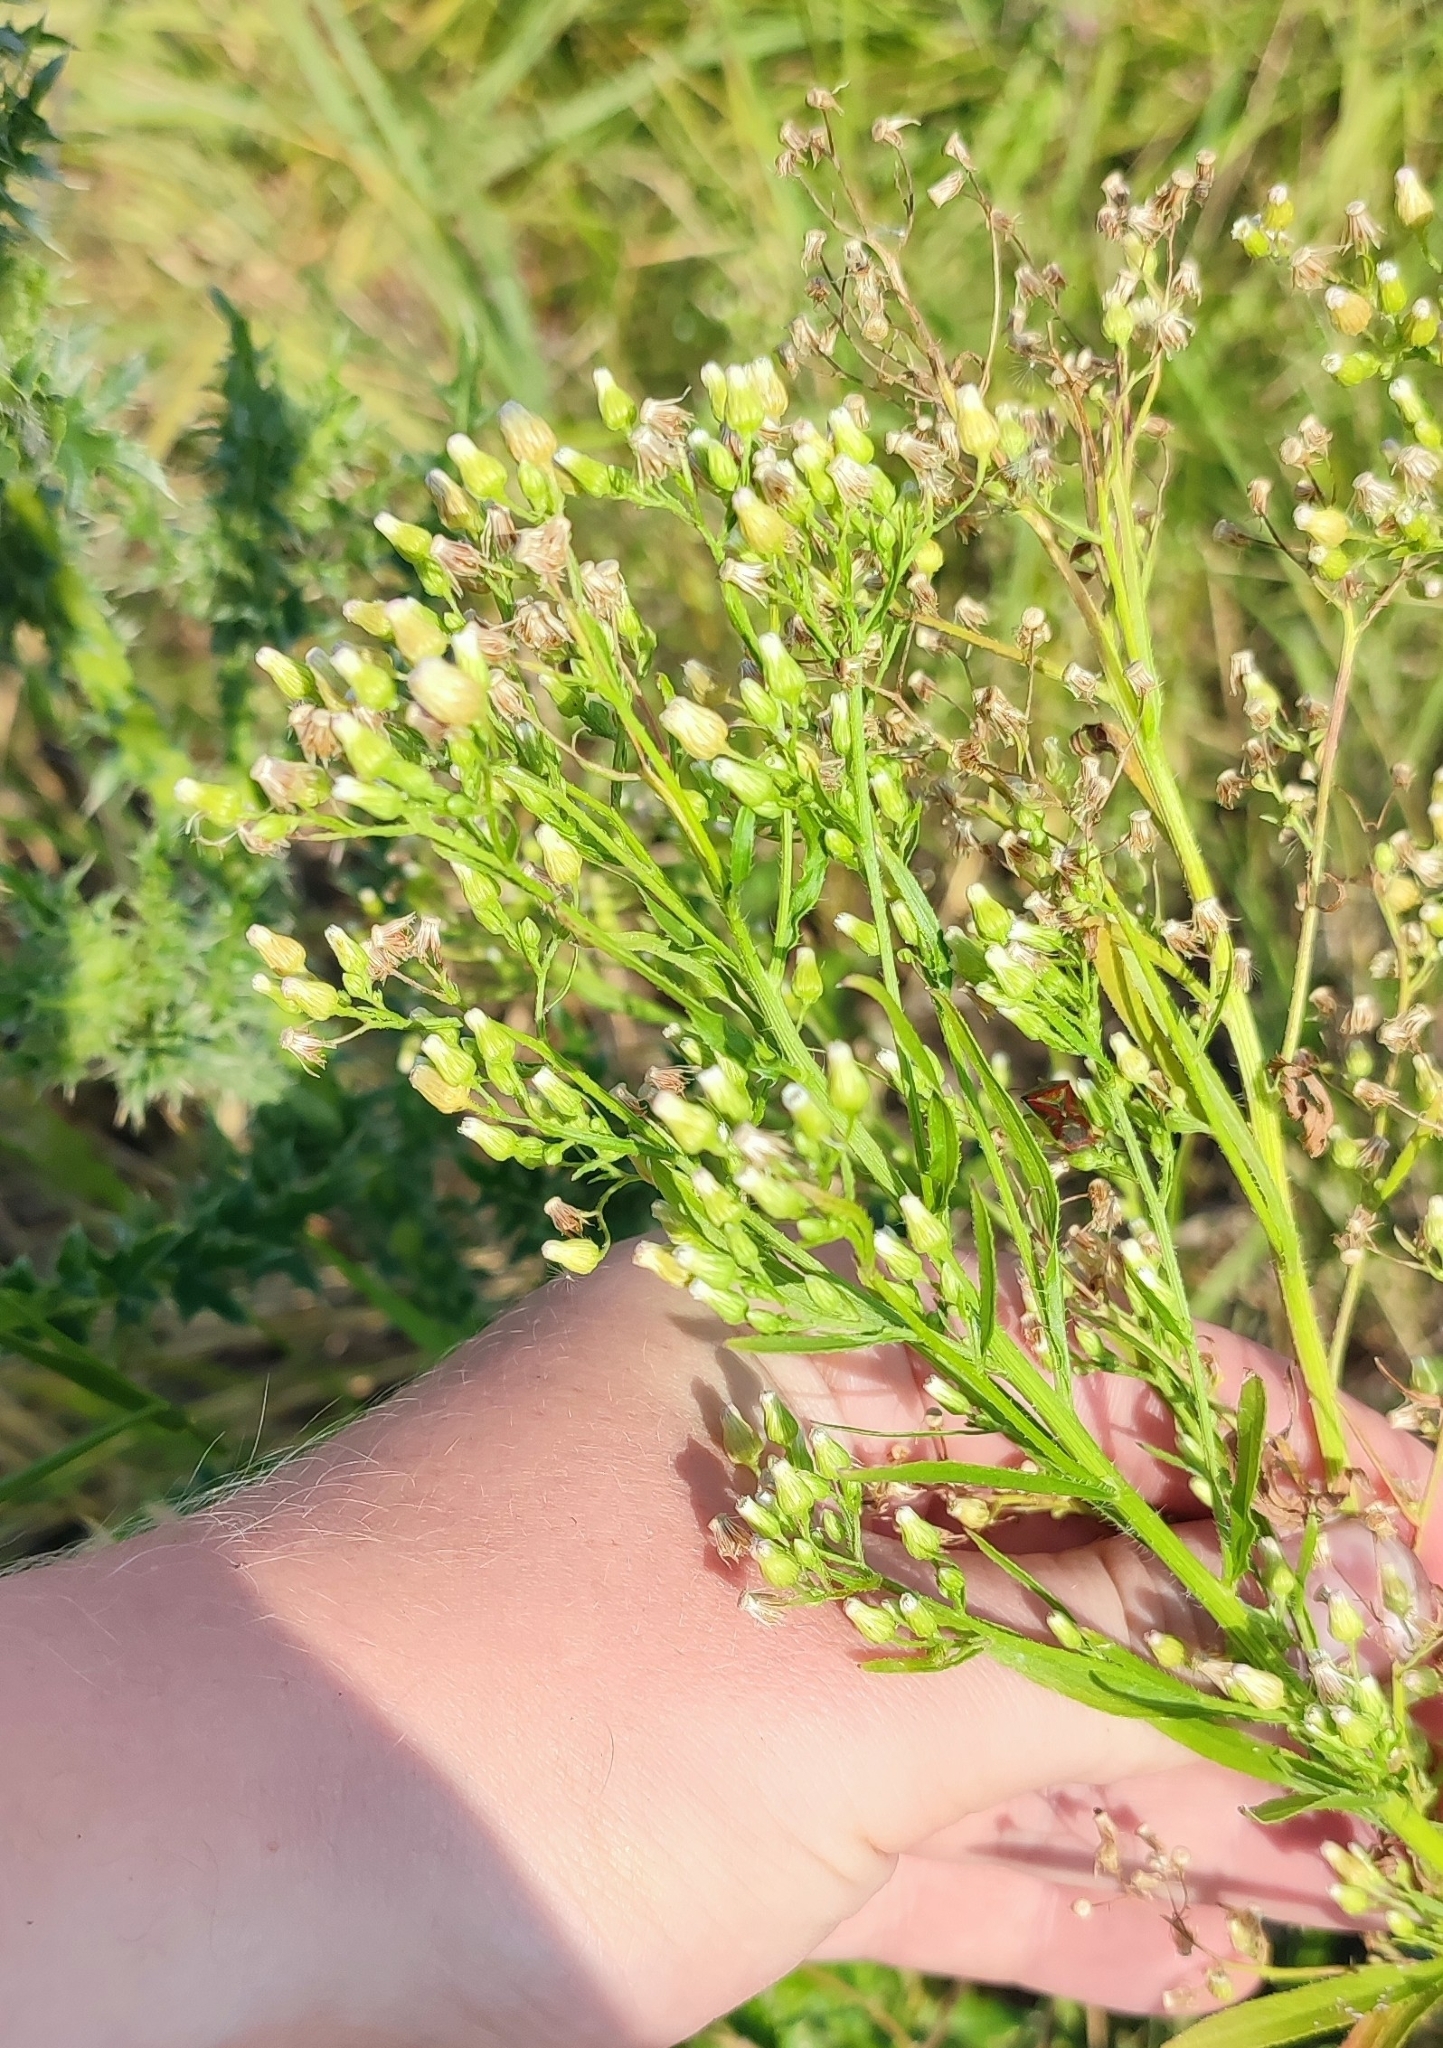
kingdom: Plantae
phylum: Tracheophyta
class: Magnoliopsida
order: Asterales
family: Asteraceae
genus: Erigeron
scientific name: Erigeron canadensis
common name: Canadian fleabane
